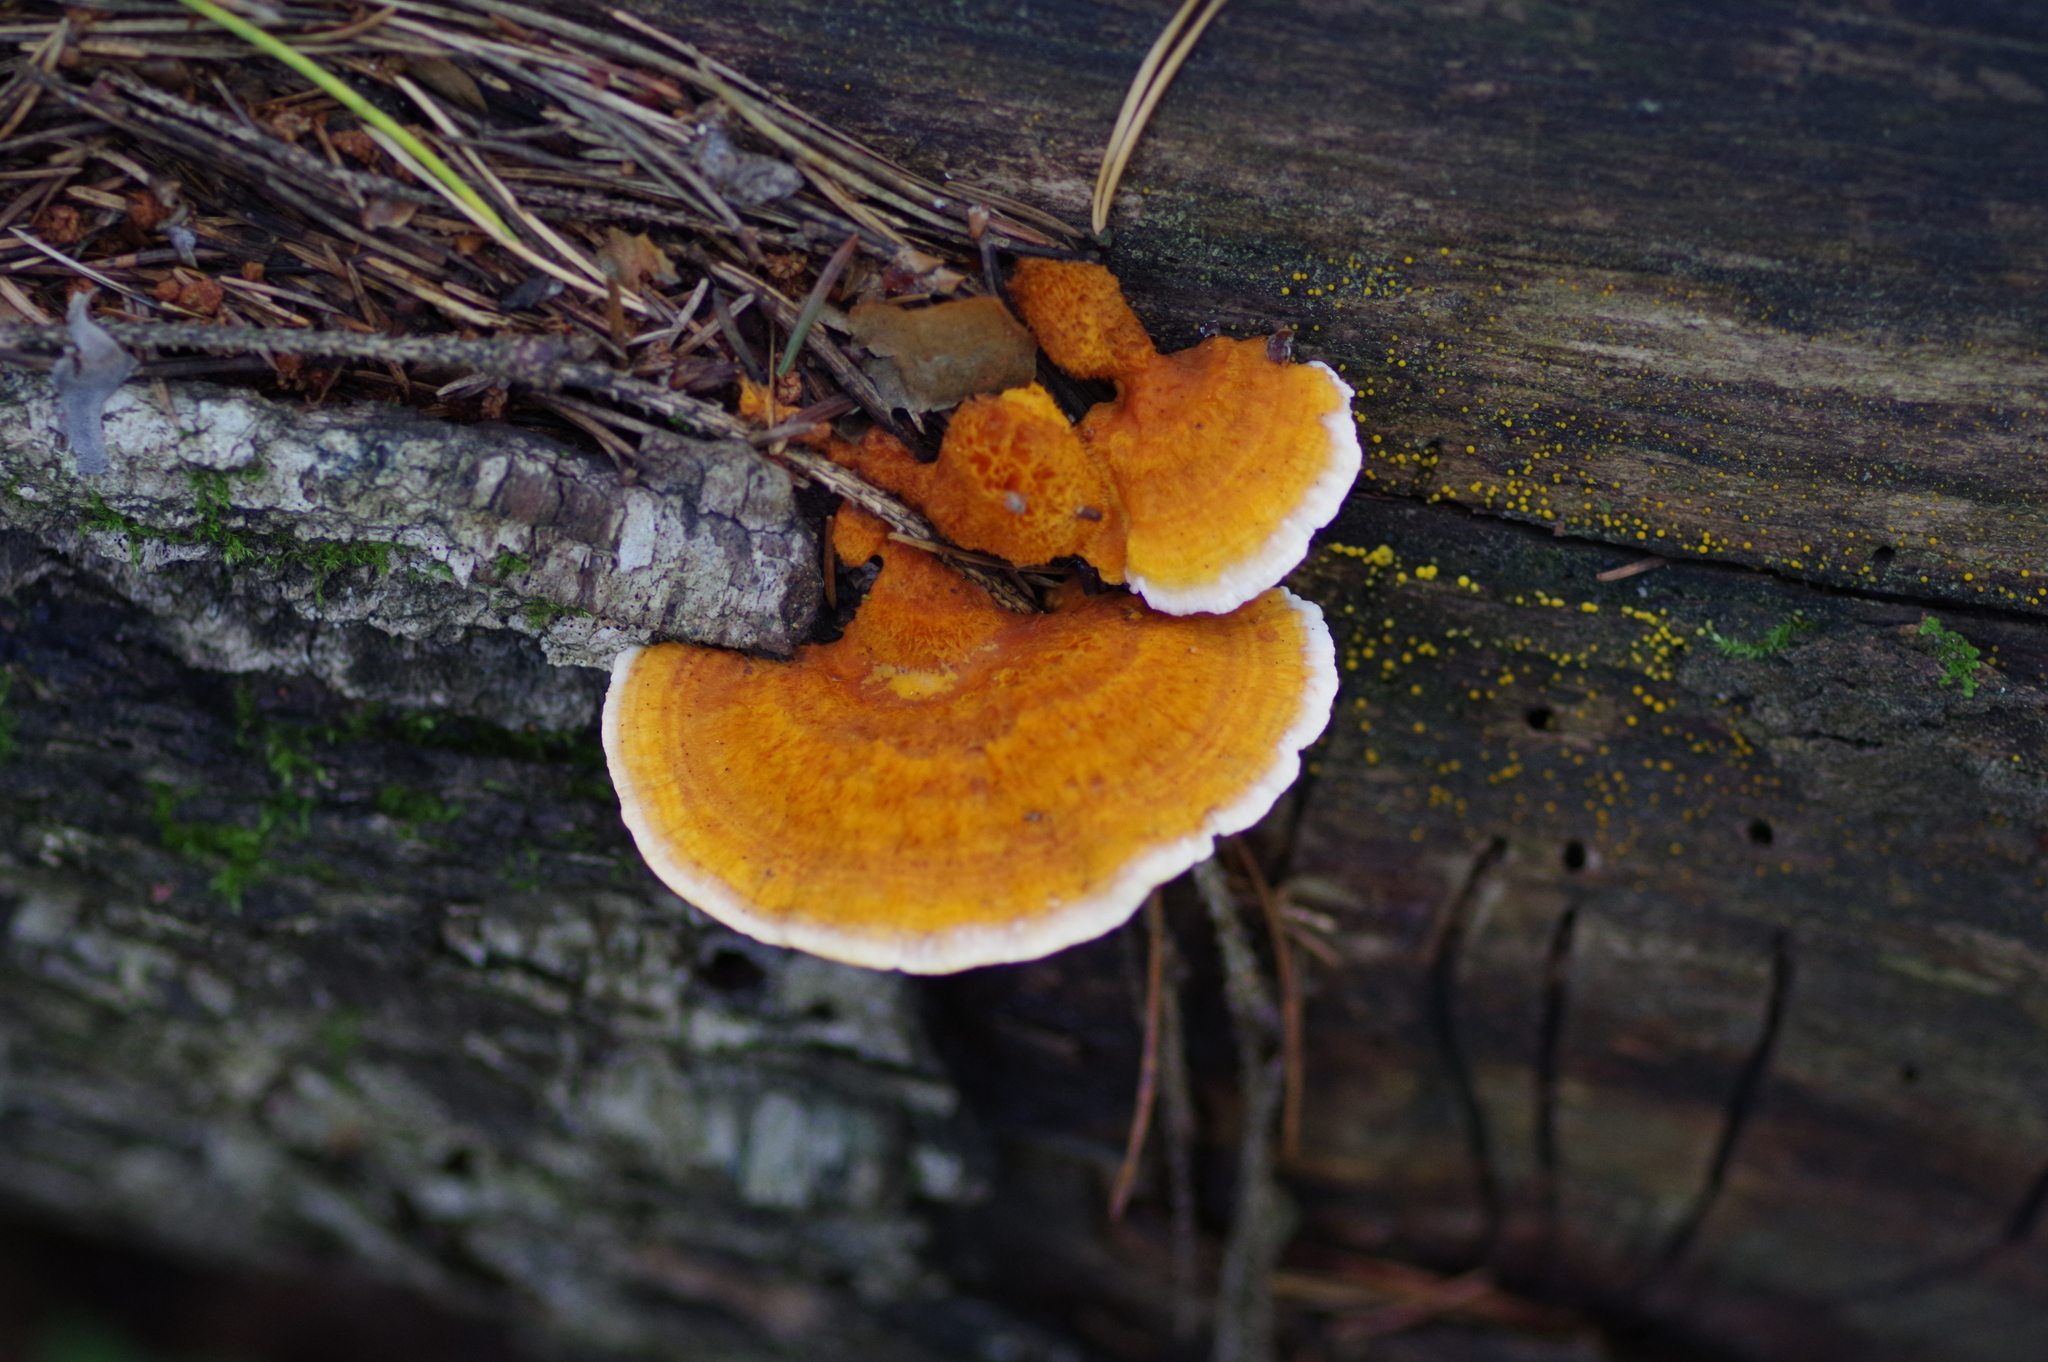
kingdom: Fungi
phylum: Basidiomycota
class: Agaricomycetes
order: Polyporales
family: Pycnoporellaceae
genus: Pycnoporellus
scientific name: Pycnoporellus fulgens
